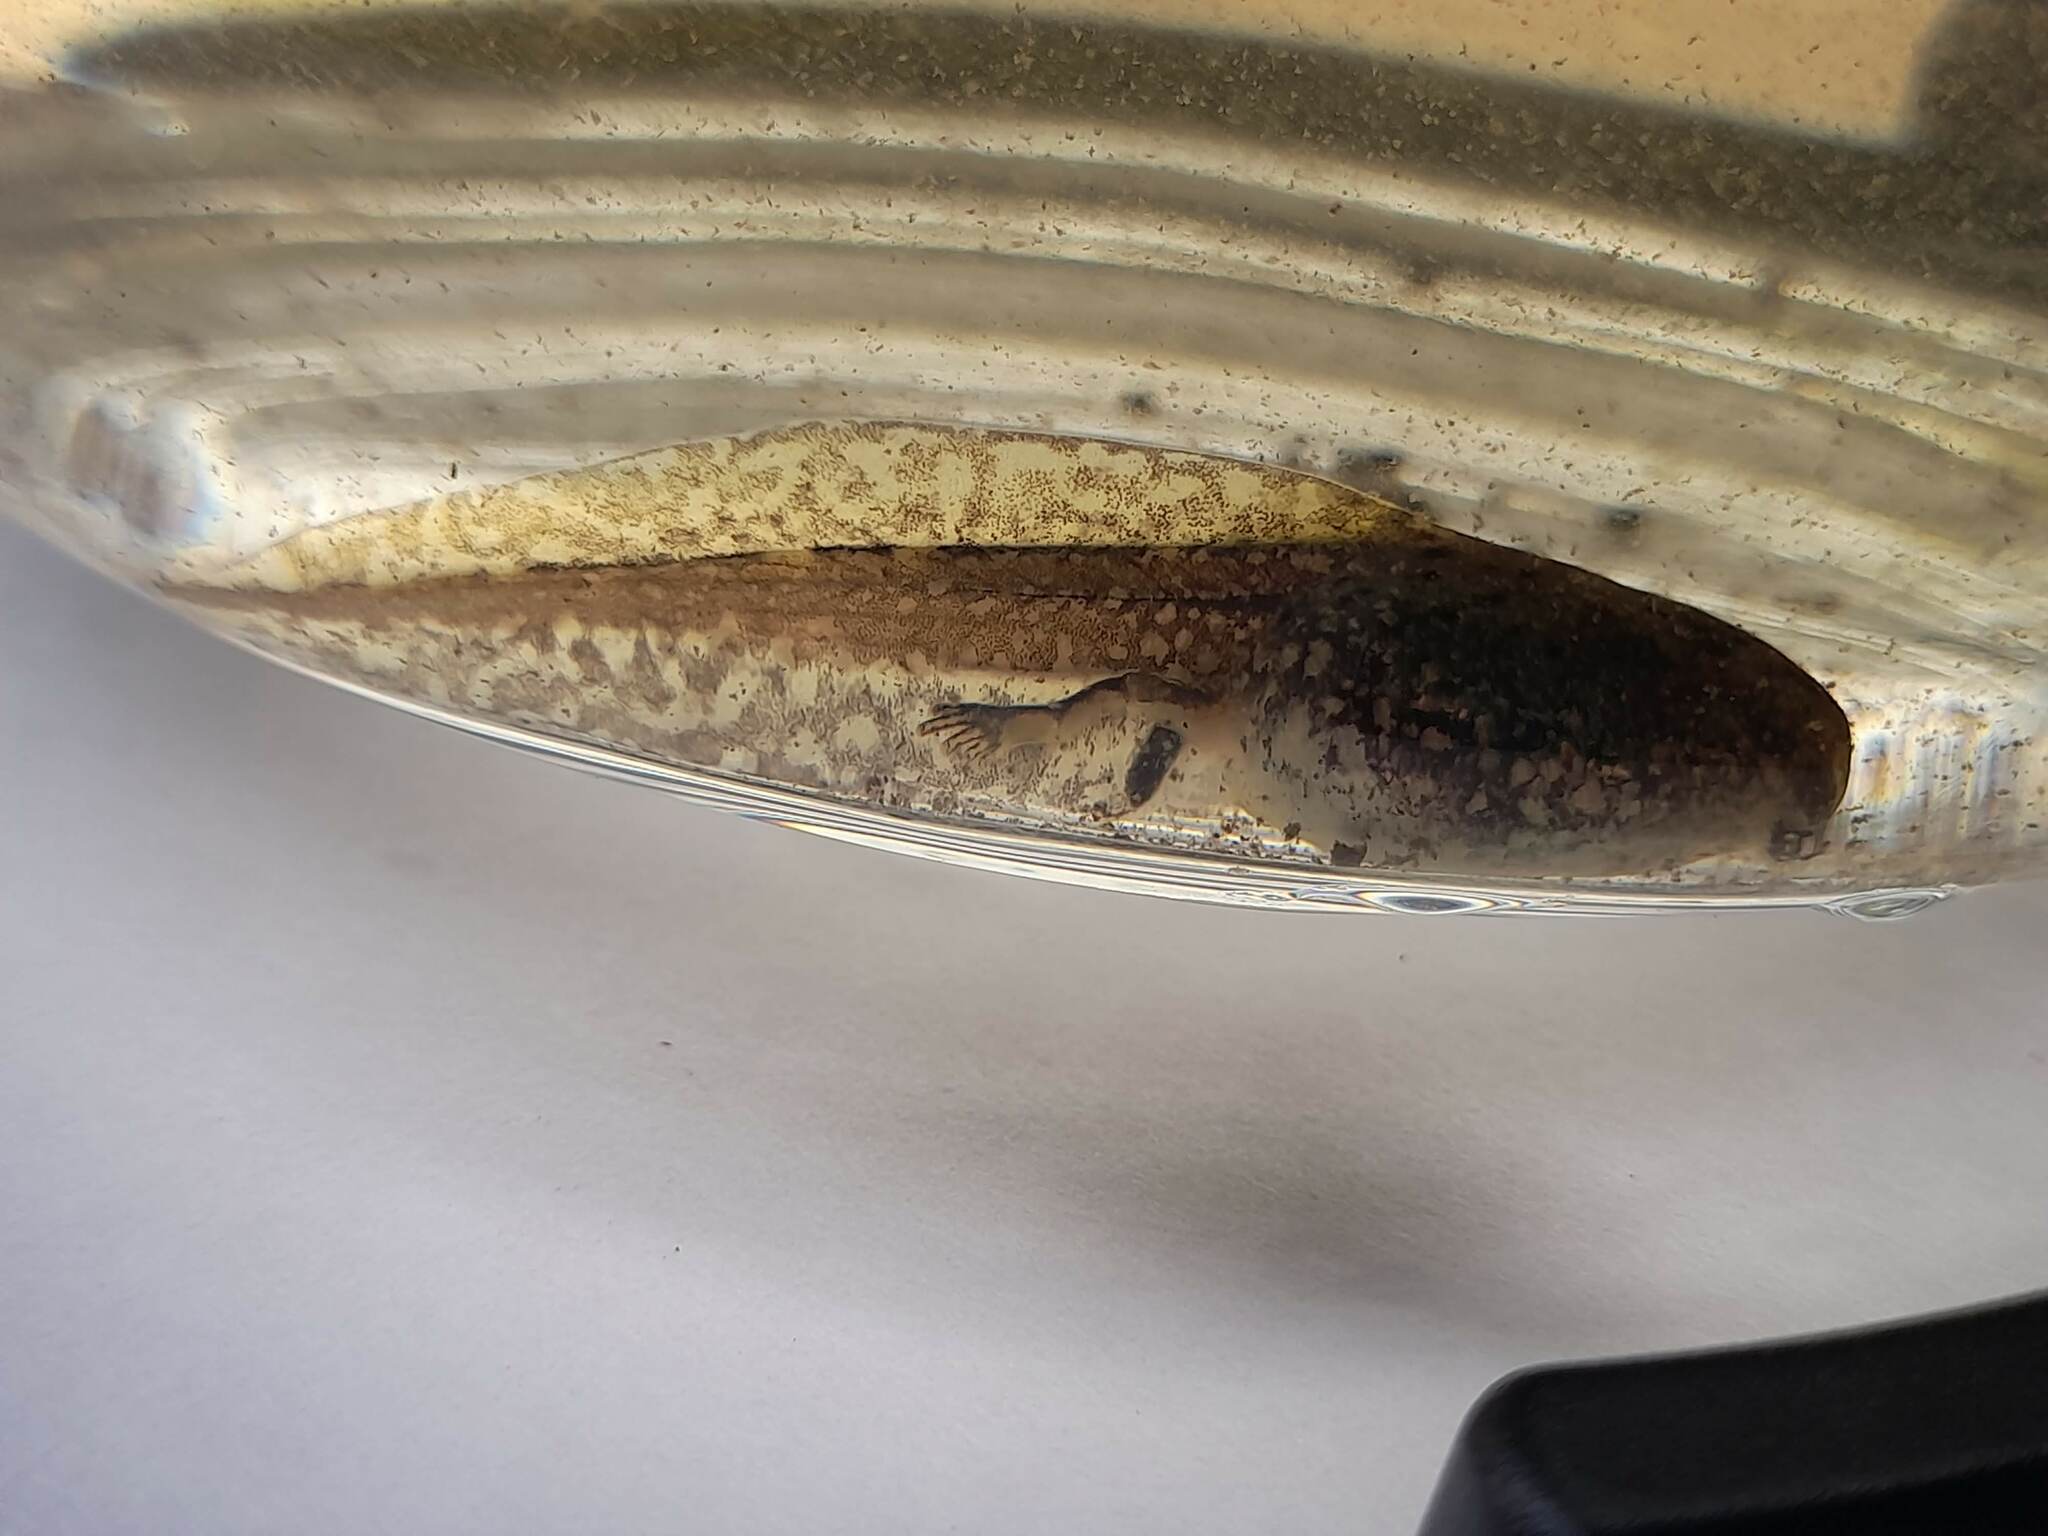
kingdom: Animalia
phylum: Chordata
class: Amphibia
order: Anura
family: Hylidae
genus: Boana
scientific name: Boana pulchella
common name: Montevideo treefrog
